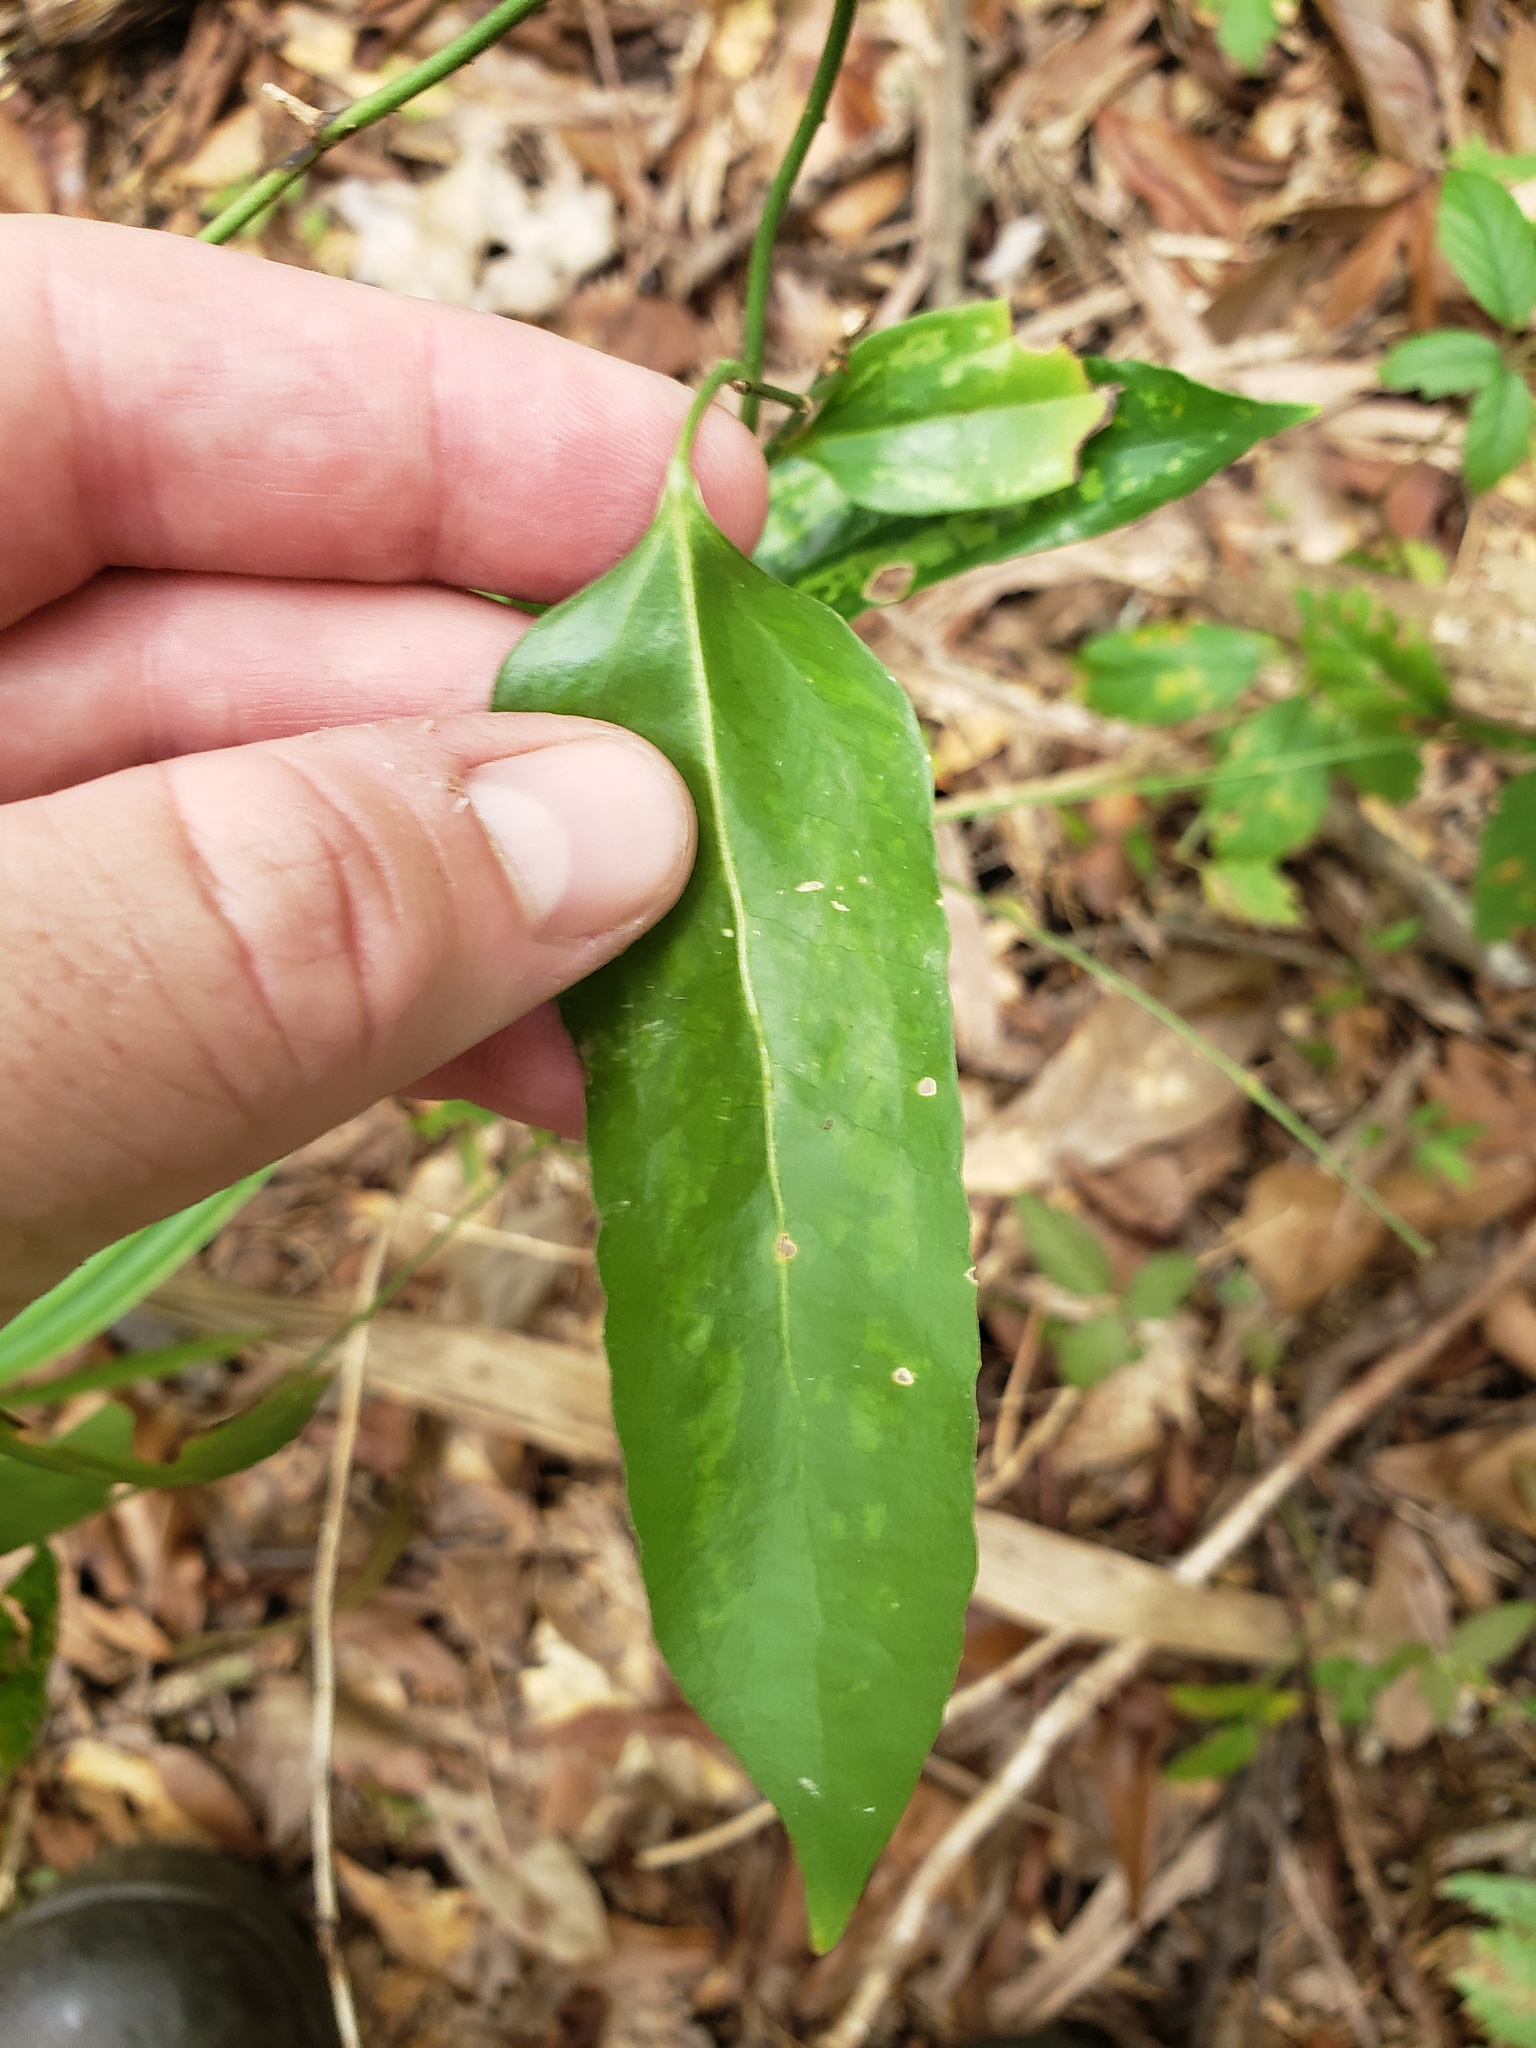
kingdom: Plantae
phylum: Tracheophyta
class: Liliopsida
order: Liliales
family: Smilacaceae
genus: Smilax
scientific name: Smilax maritima
